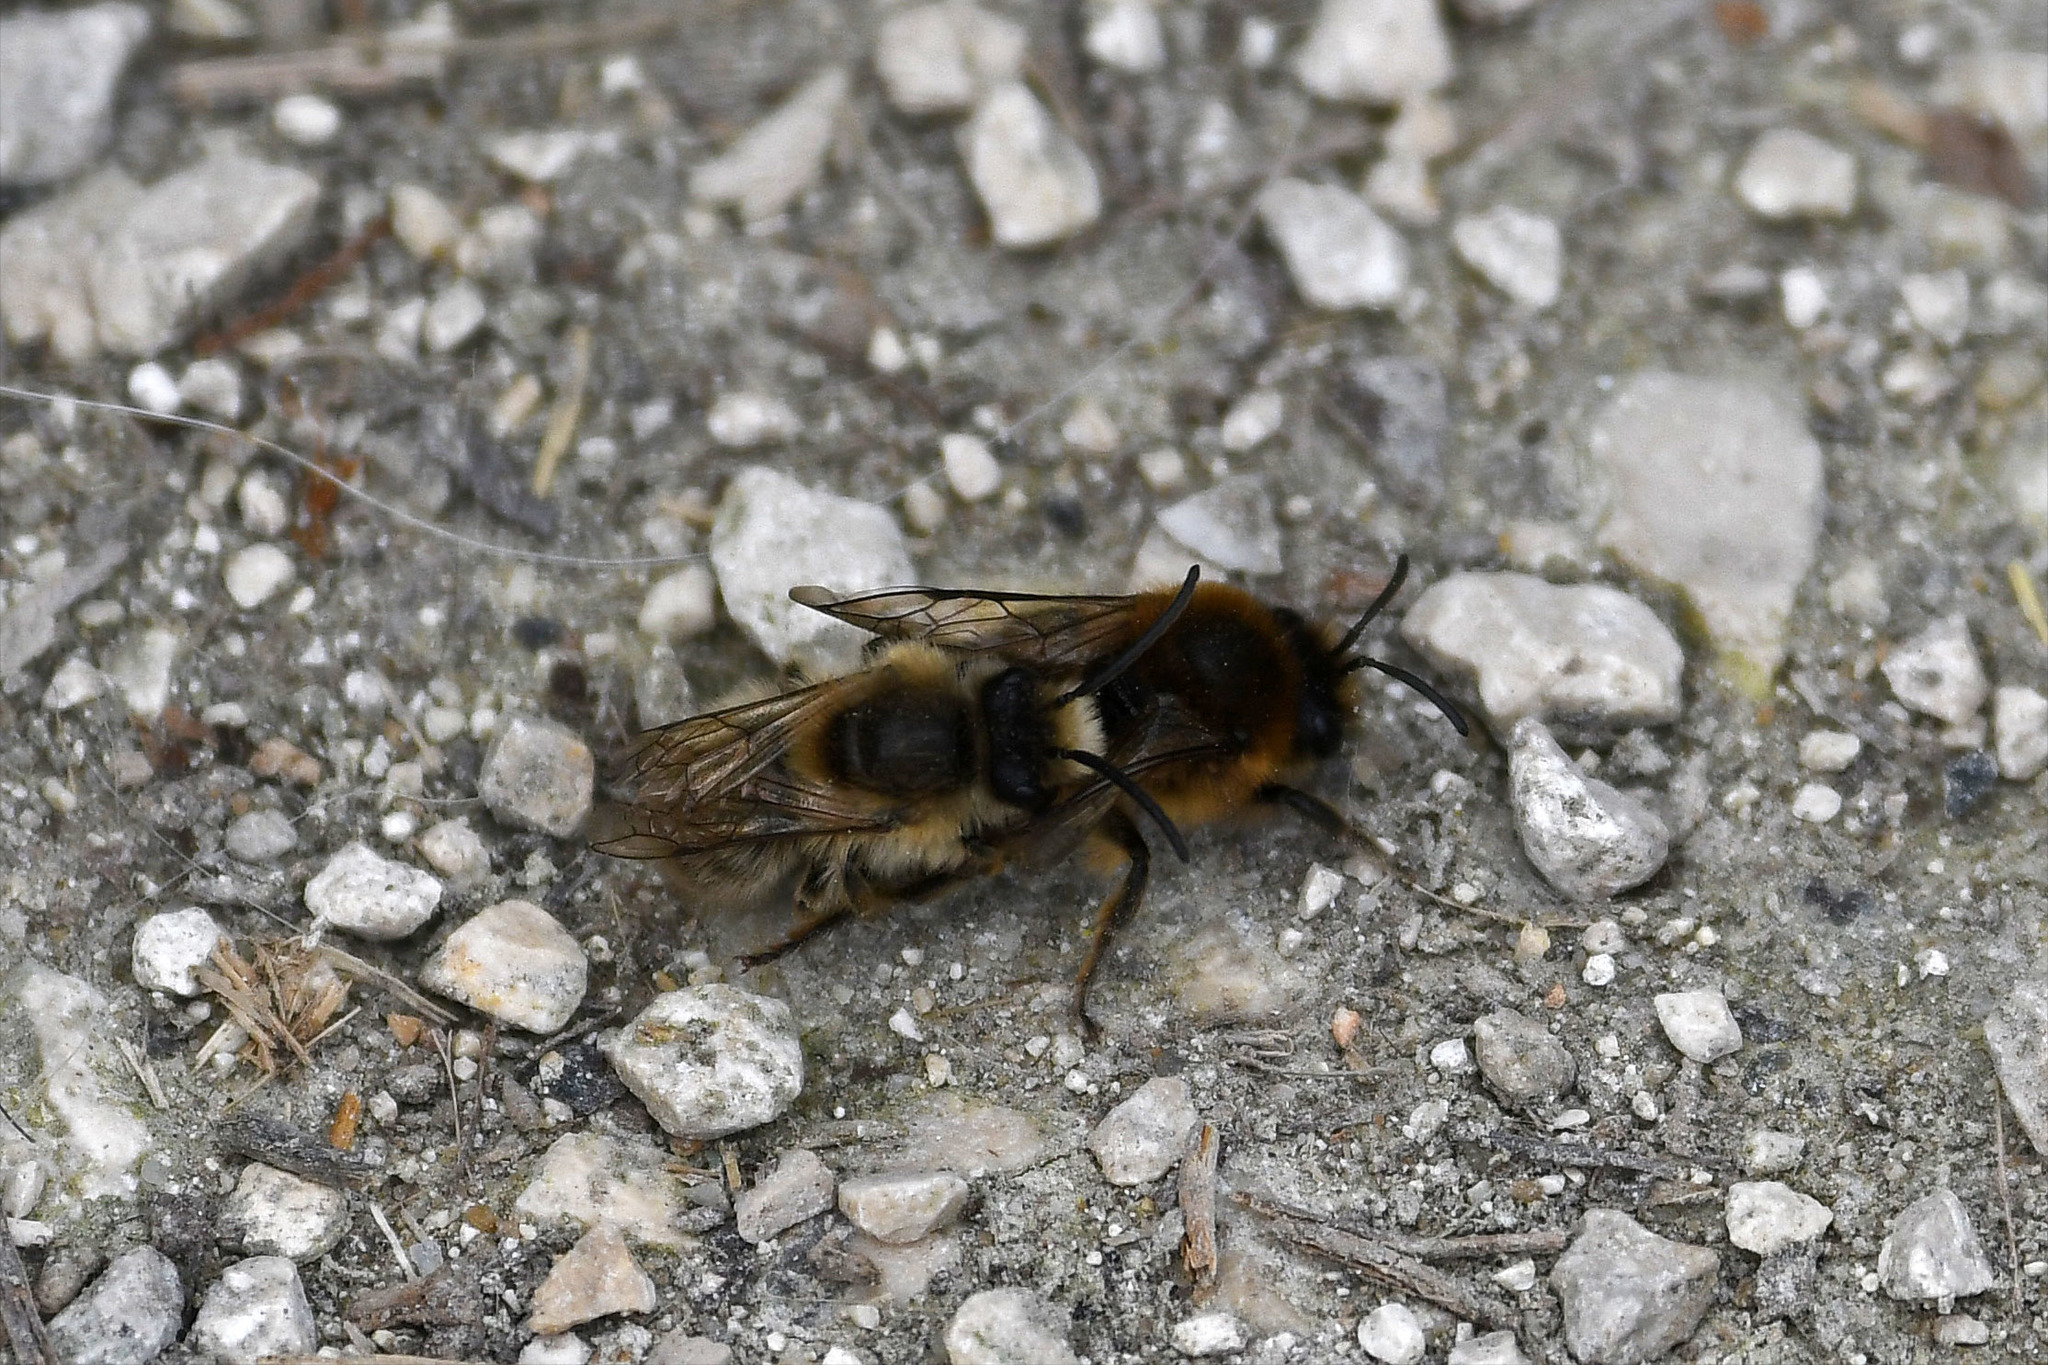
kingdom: Animalia
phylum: Arthropoda
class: Insecta
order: Hymenoptera
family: Colletidae
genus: Colletes
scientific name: Colletes cunicularius
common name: Early colletes
